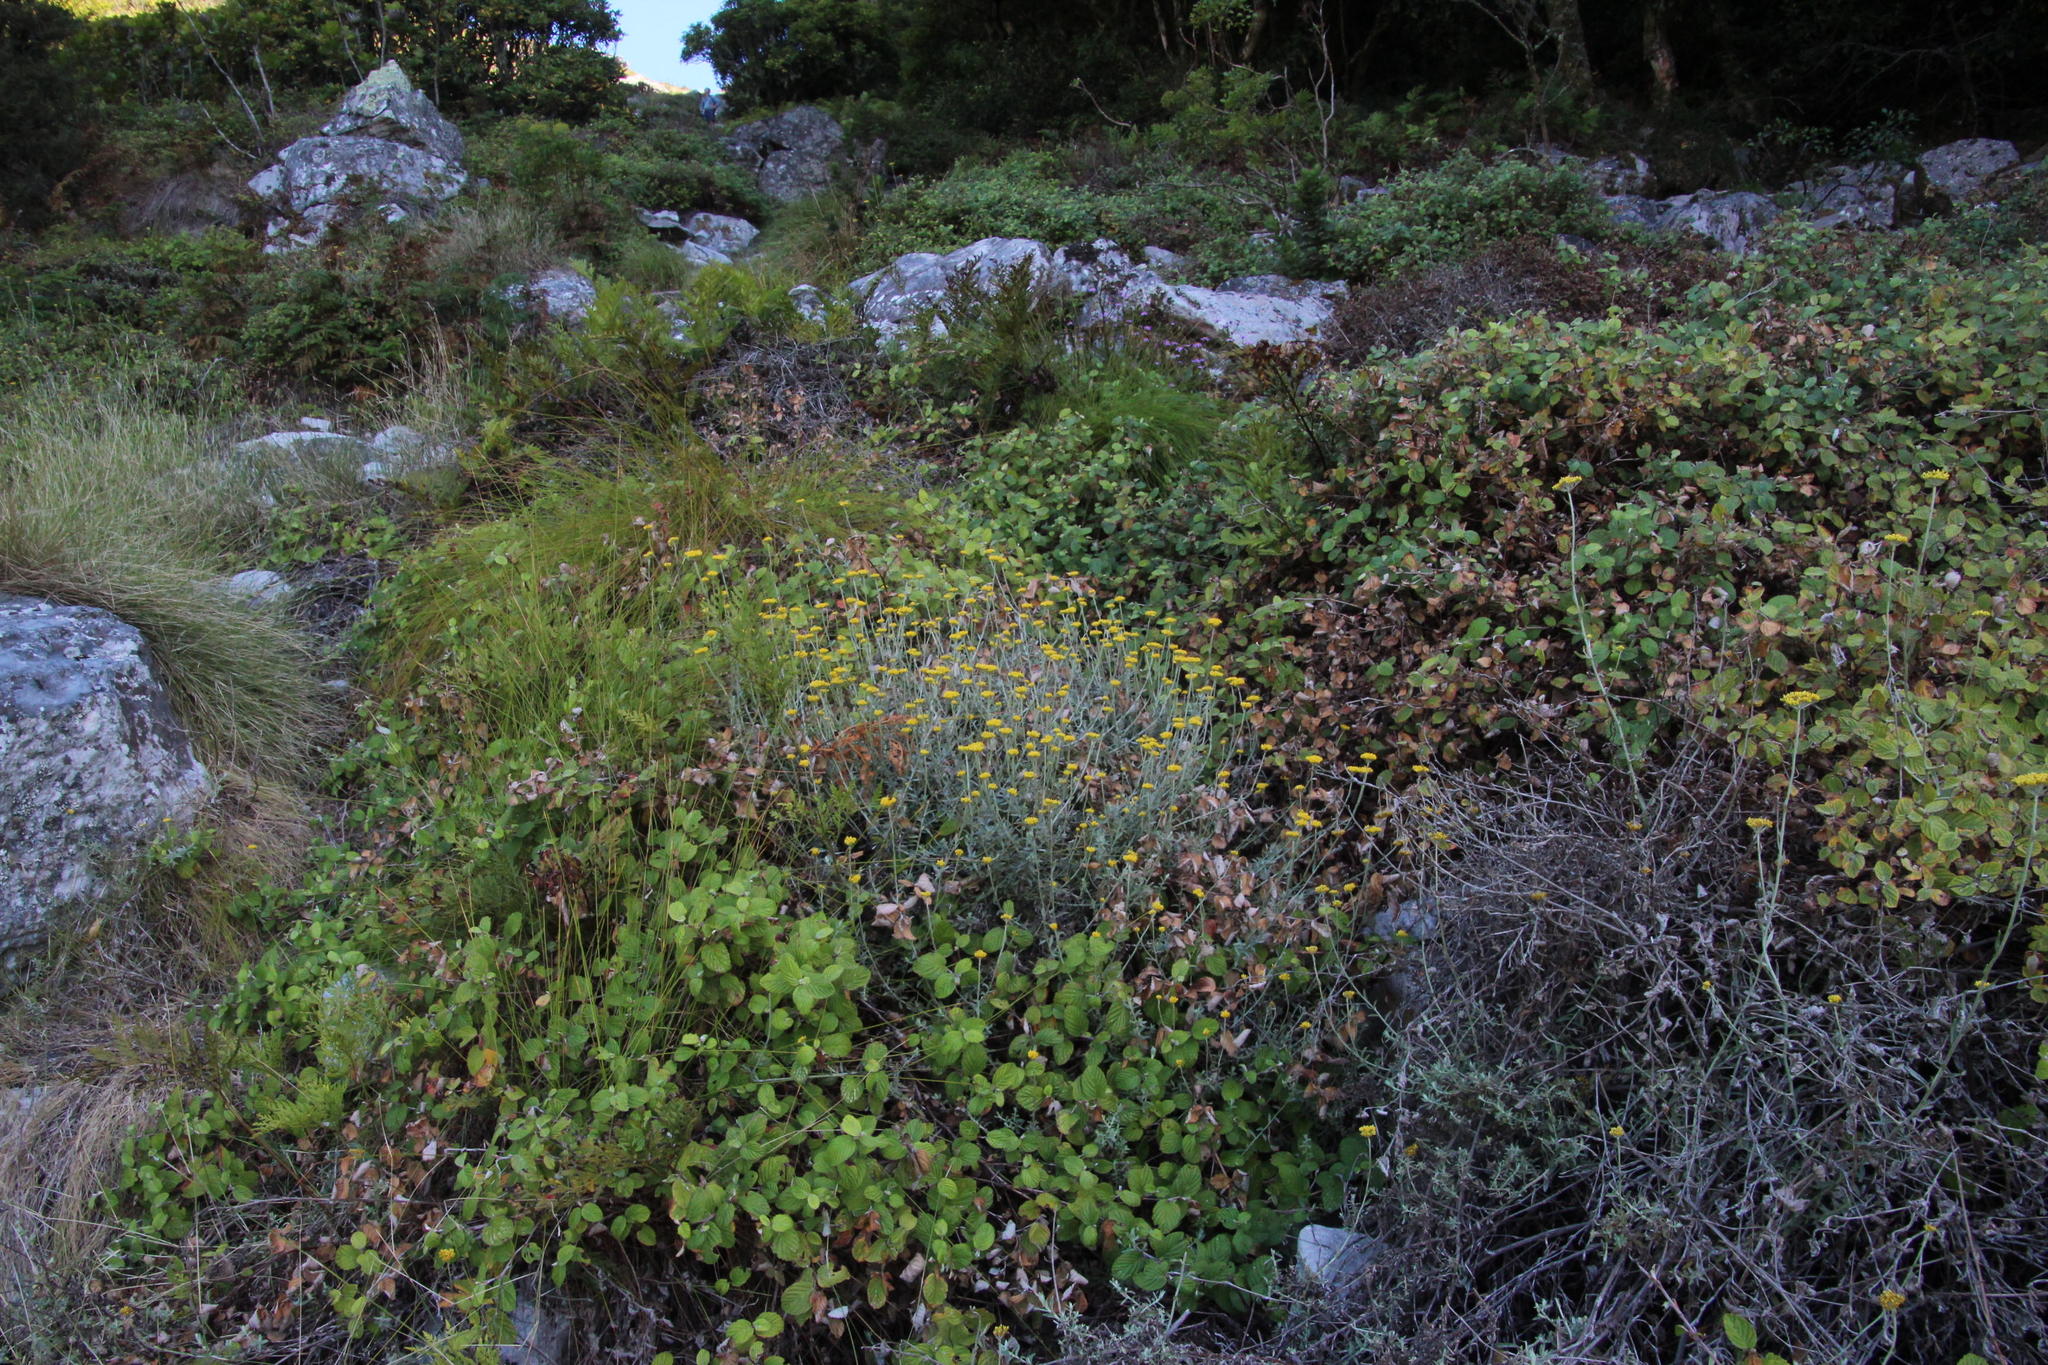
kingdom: Plantae
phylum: Tracheophyta
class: Magnoliopsida
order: Asterales
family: Asteraceae
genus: Helichrysum
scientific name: Helichrysum cymosum
